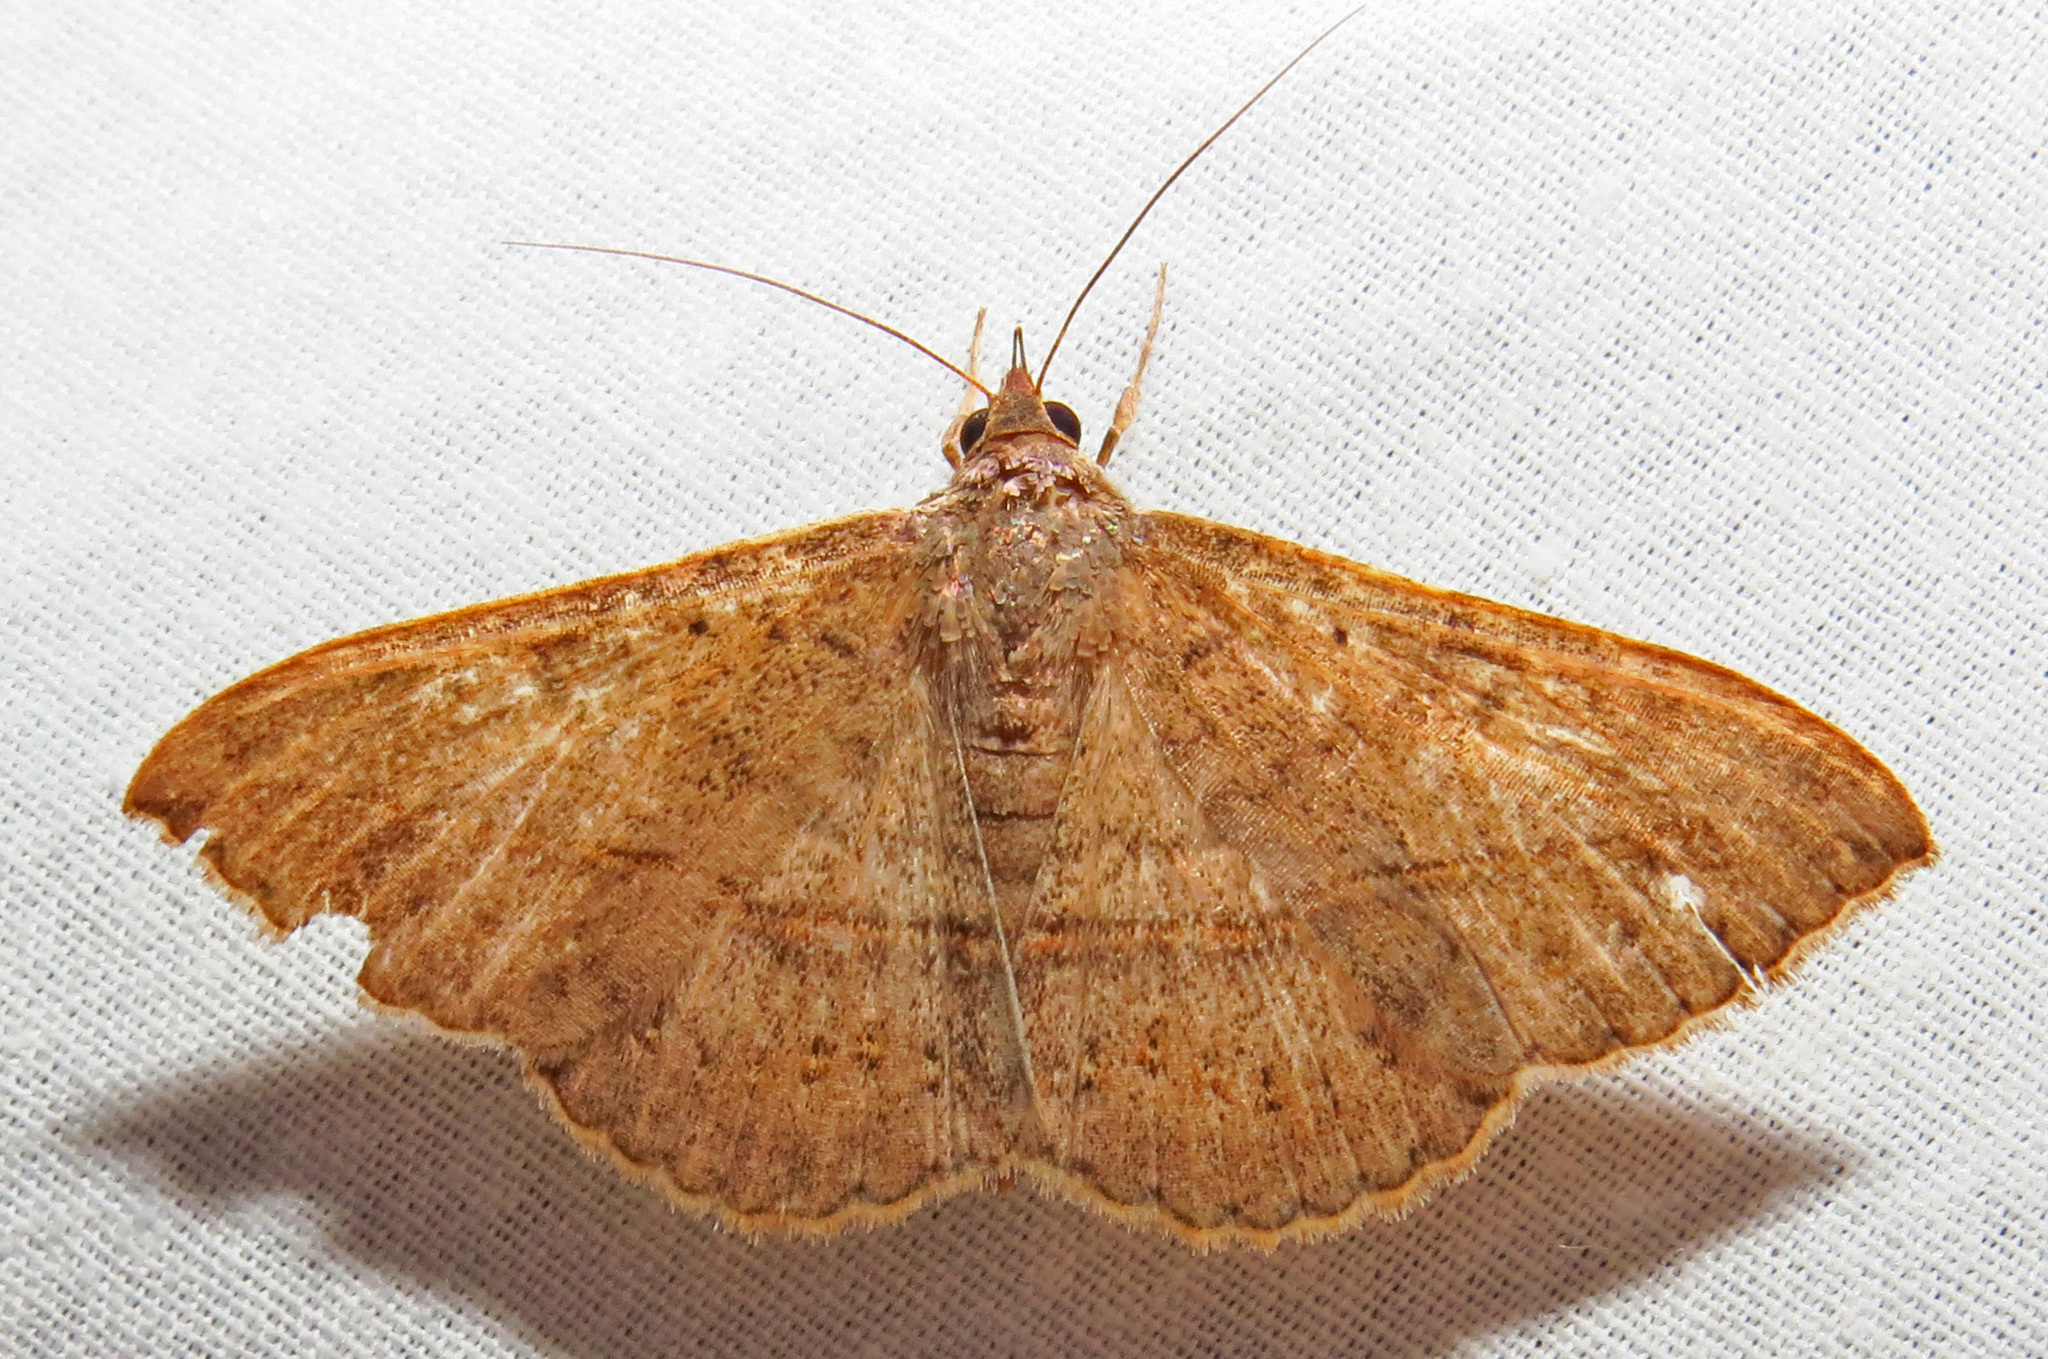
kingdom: Animalia
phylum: Arthropoda
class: Insecta
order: Lepidoptera
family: Erebidae
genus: Anticarsia
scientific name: Anticarsia gemmatalis
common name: Cutworm moth
